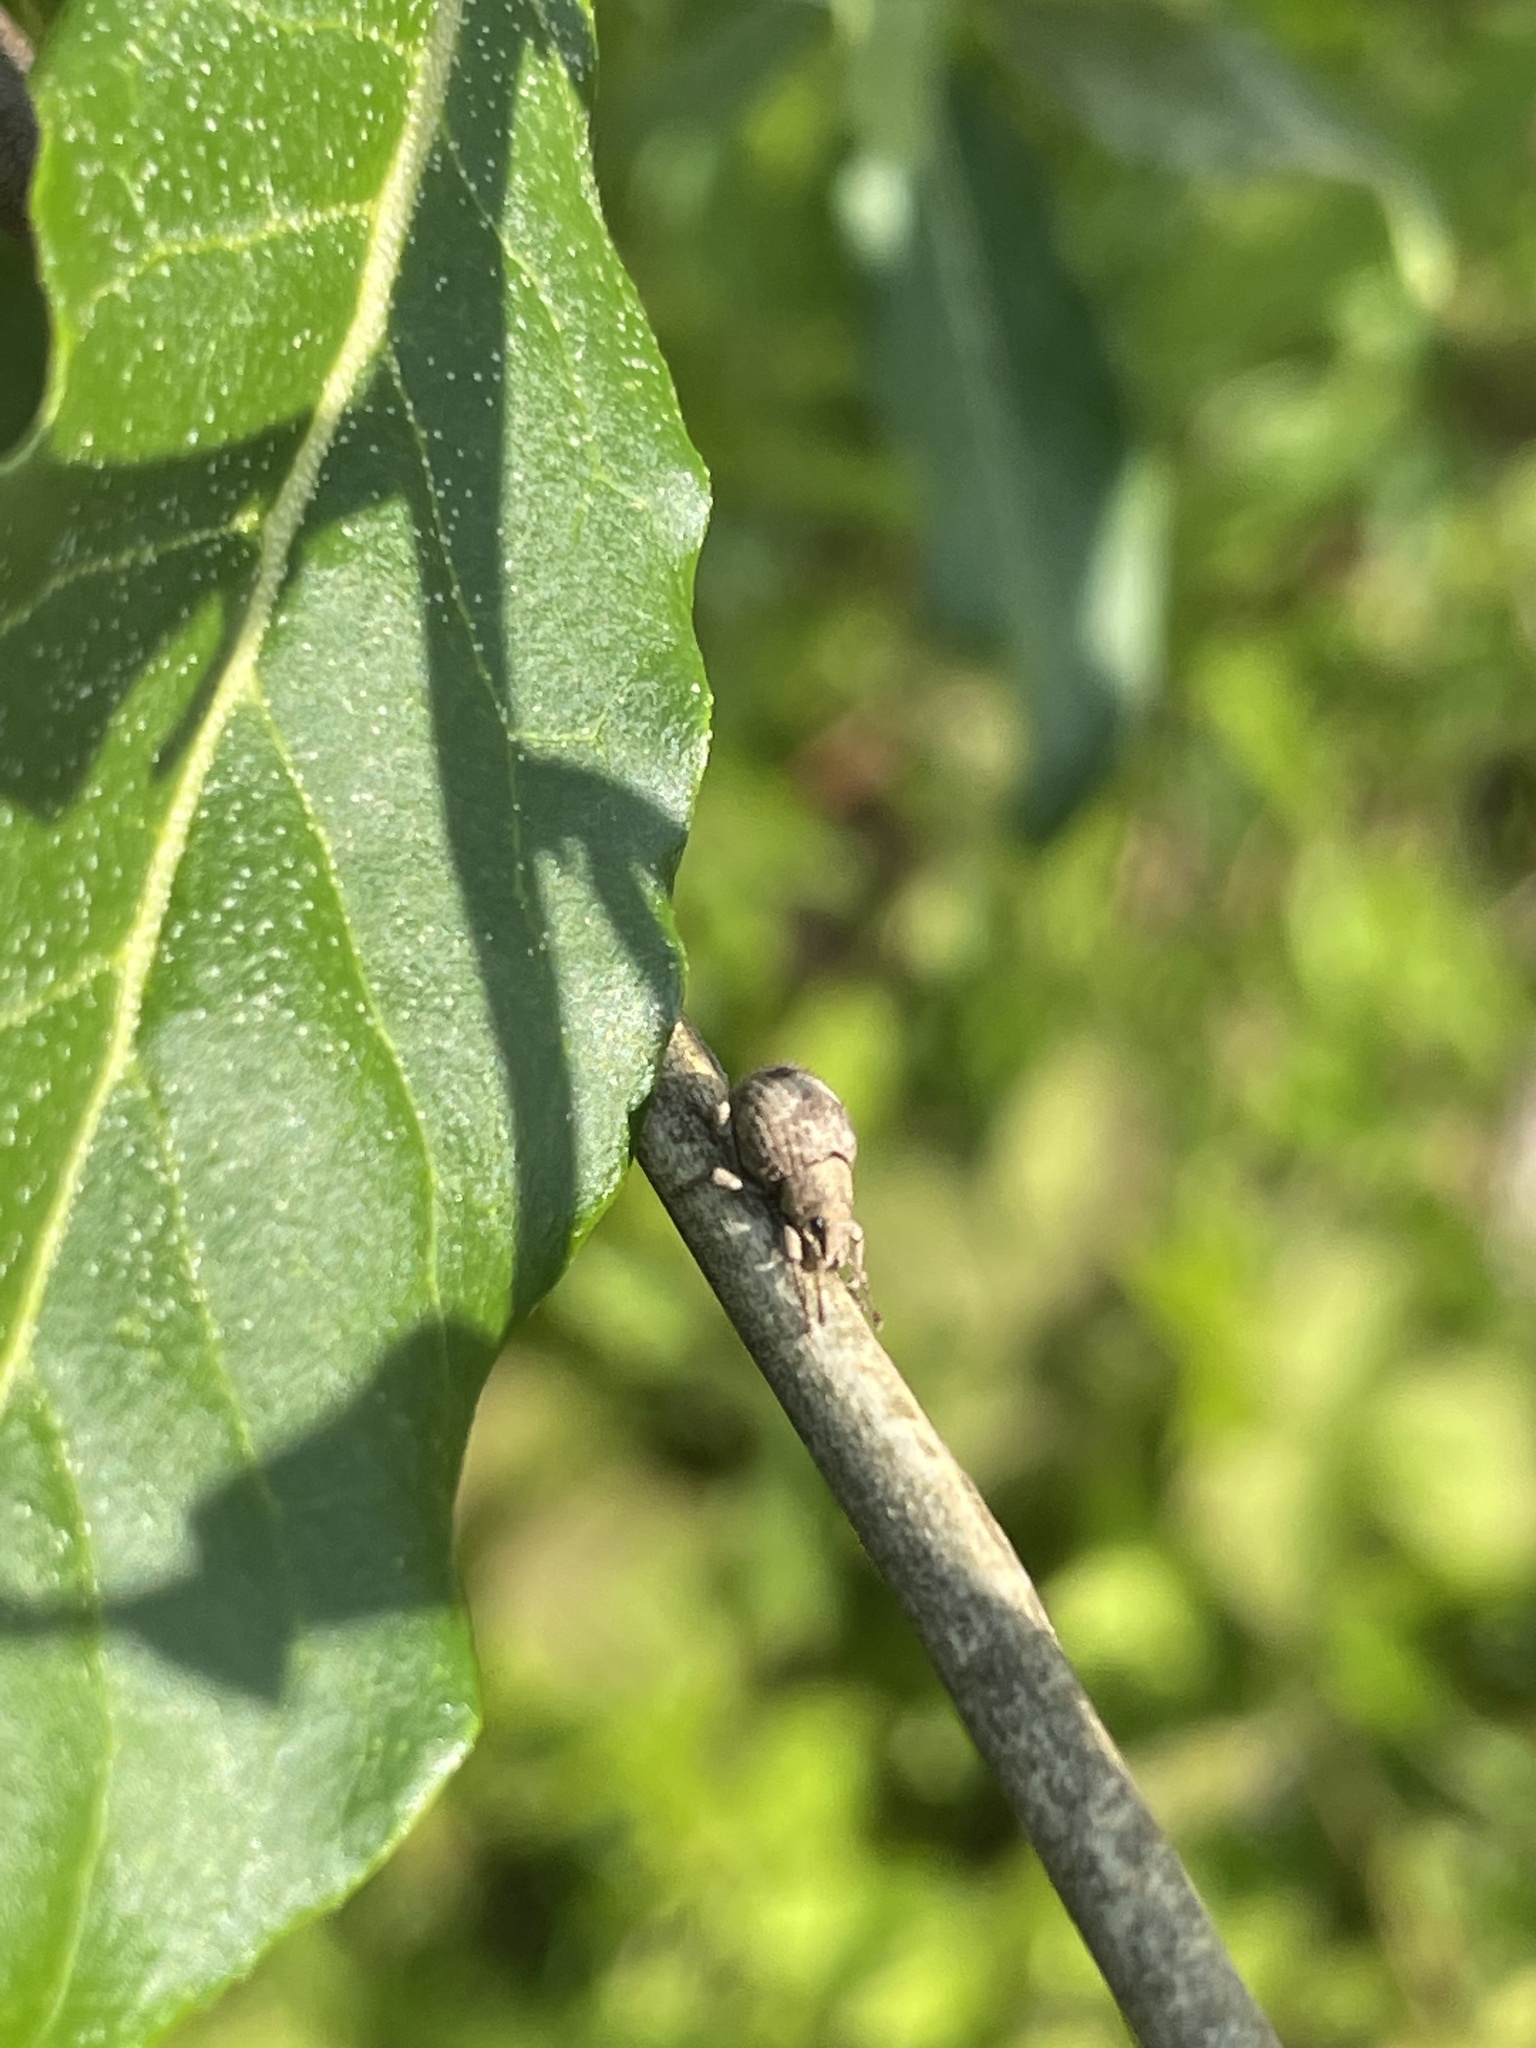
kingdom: Animalia
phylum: Arthropoda
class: Insecta
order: Coleoptera
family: Curculionidae
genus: Pseudocneorhinus
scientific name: Pseudocneorhinus bifasciatus
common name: Two-banded japanese weevil
